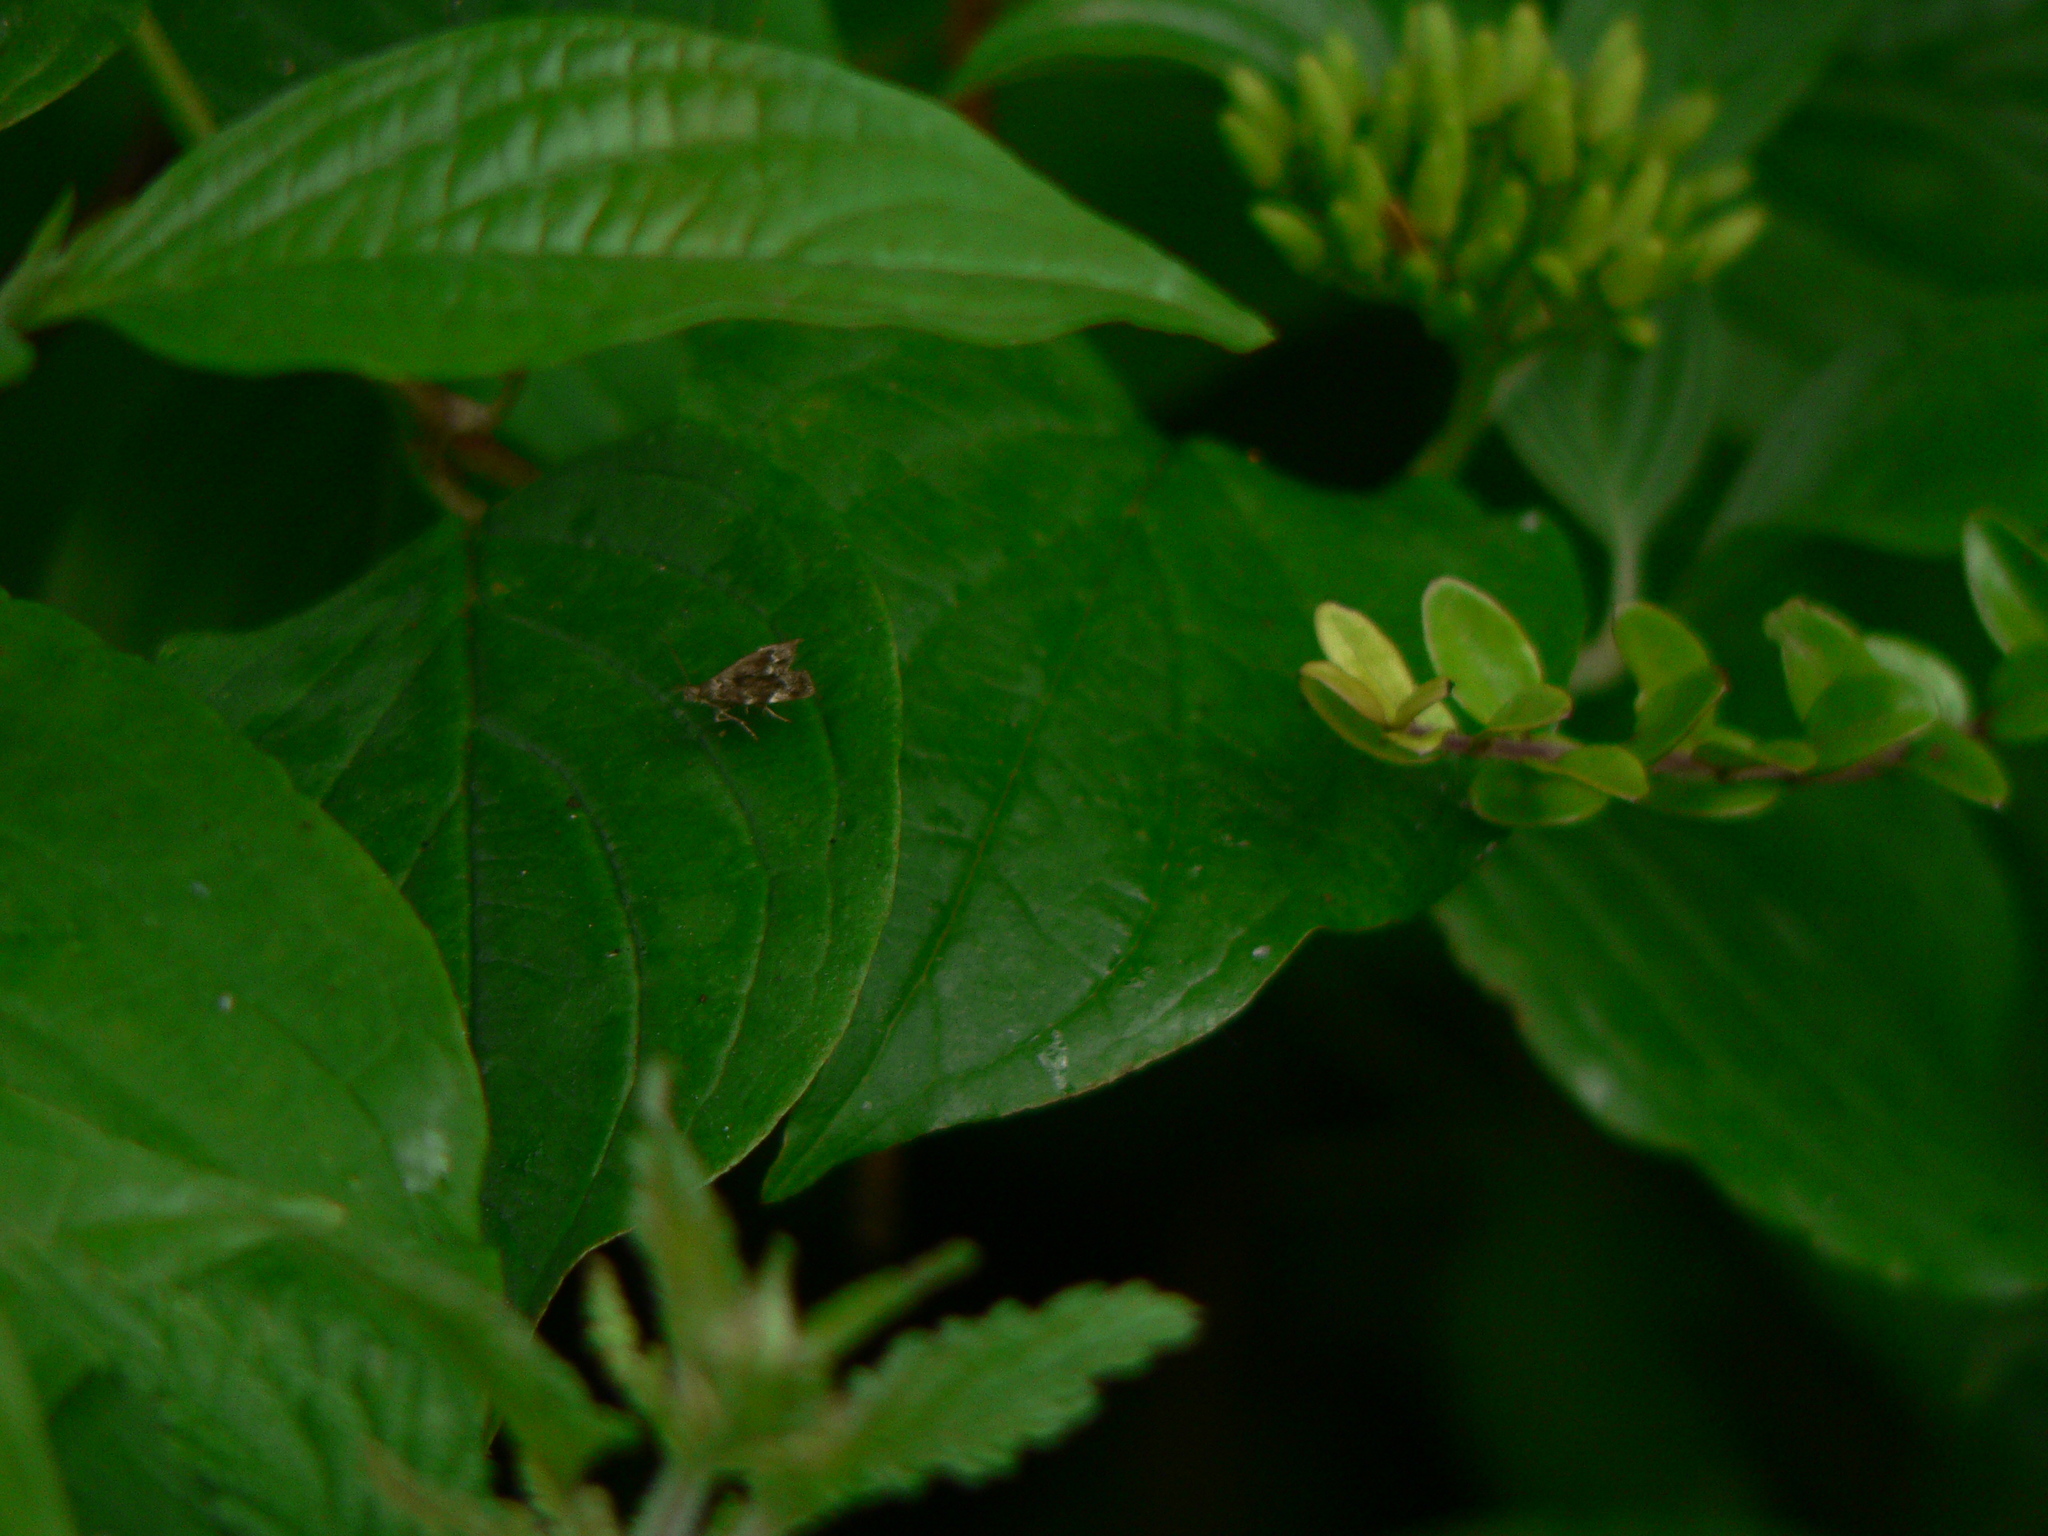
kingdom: Animalia
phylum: Arthropoda
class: Insecta
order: Lepidoptera
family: Choreutidae
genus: Anthophila
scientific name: Anthophila fabriciana
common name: Nettle-tap
